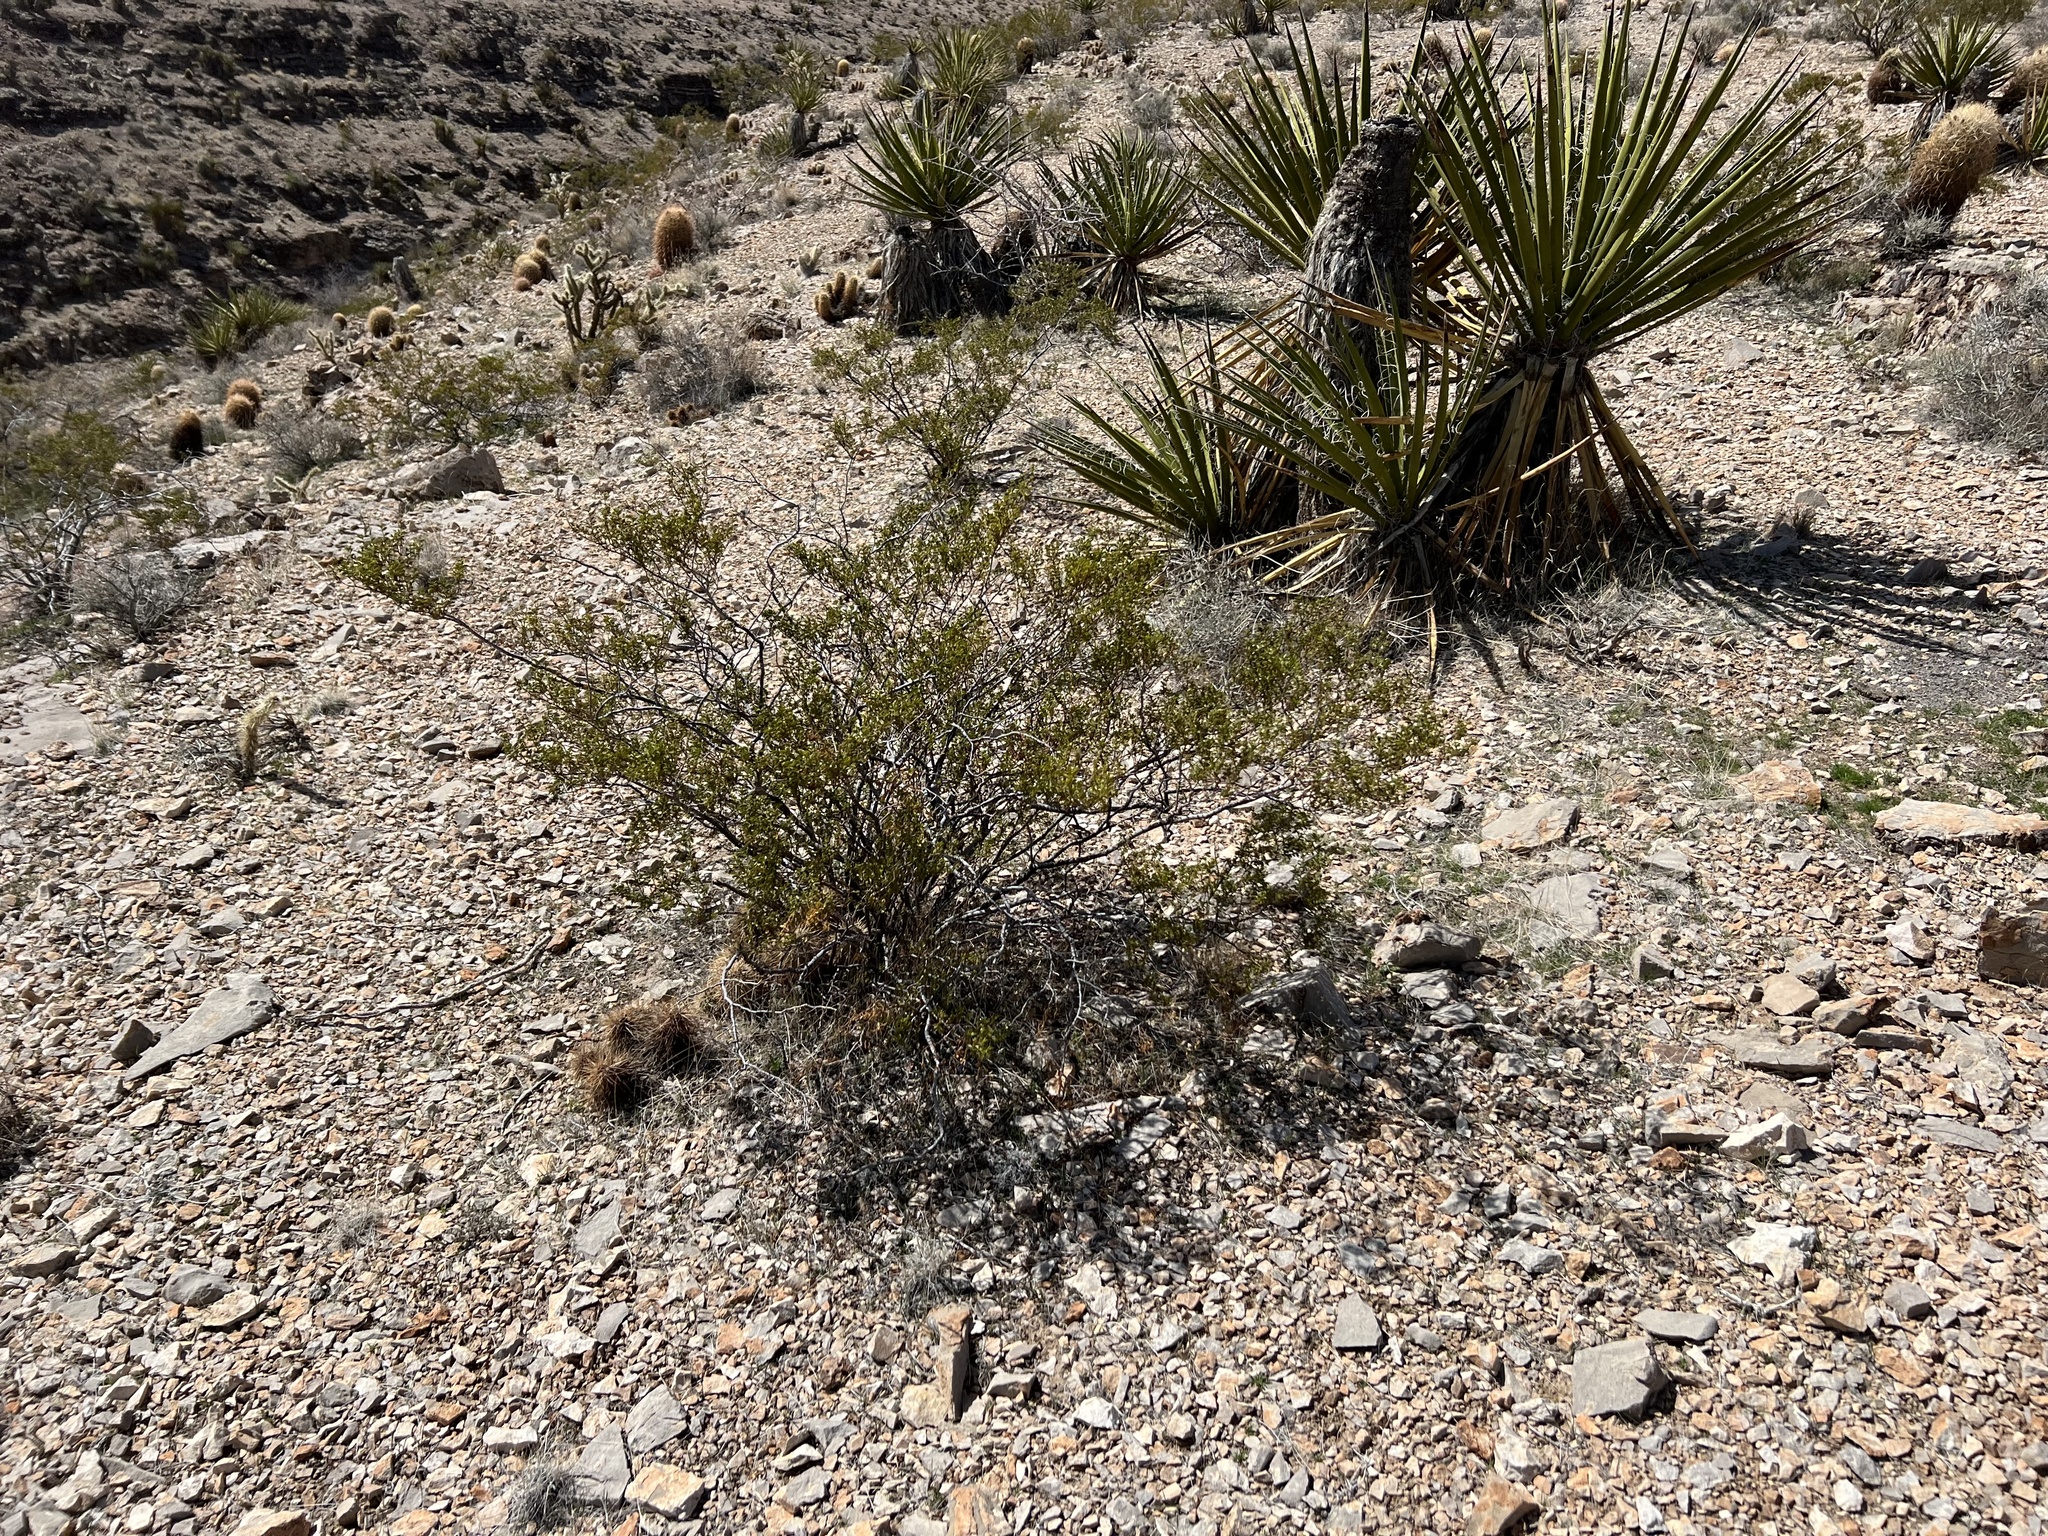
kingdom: Plantae
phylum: Tracheophyta
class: Magnoliopsida
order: Zygophyllales
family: Zygophyllaceae
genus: Larrea
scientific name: Larrea tridentata
